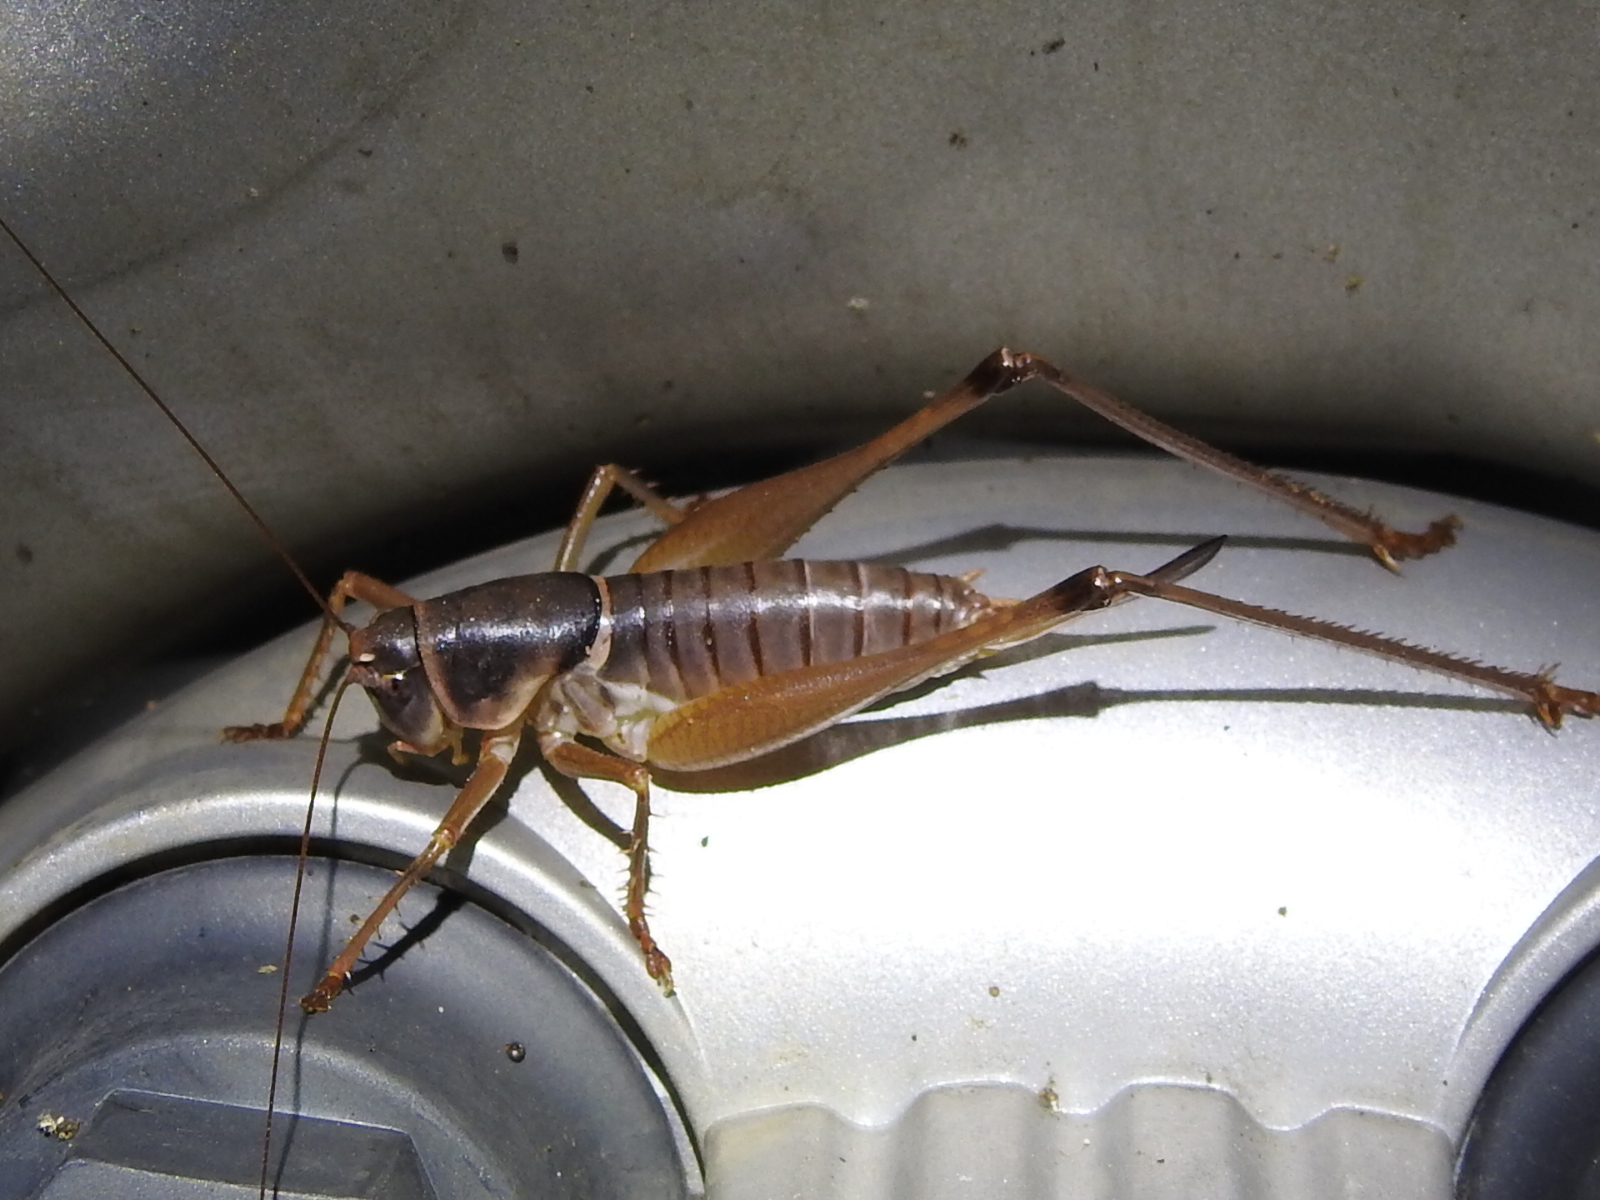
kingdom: Animalia
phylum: Arthropoda
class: Insecta
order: Orthoptera
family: Tettigoniidae
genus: Pediodectes
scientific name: Pediodectes bruneri
